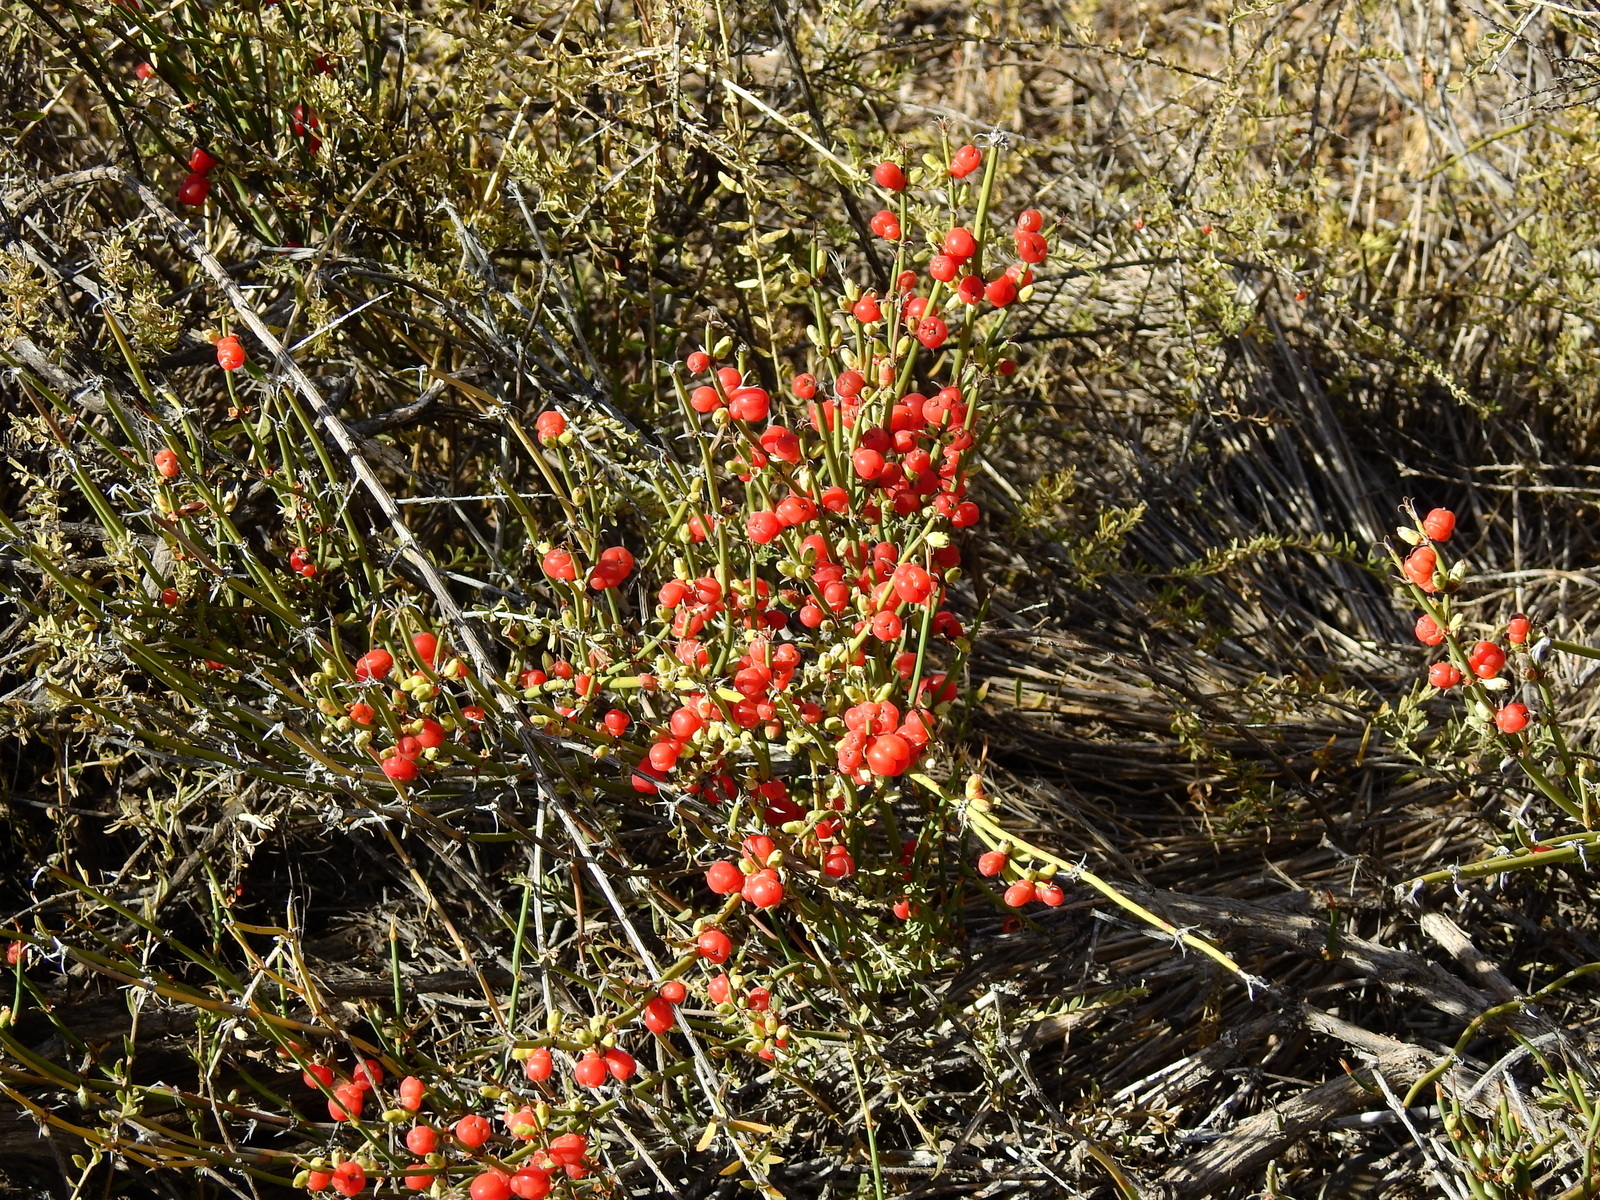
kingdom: Plantae
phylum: Tracheophyta
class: Gnetopsida
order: Ephedrales
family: Ephedraceae
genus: Ephedra
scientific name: Ephedra ochreata
